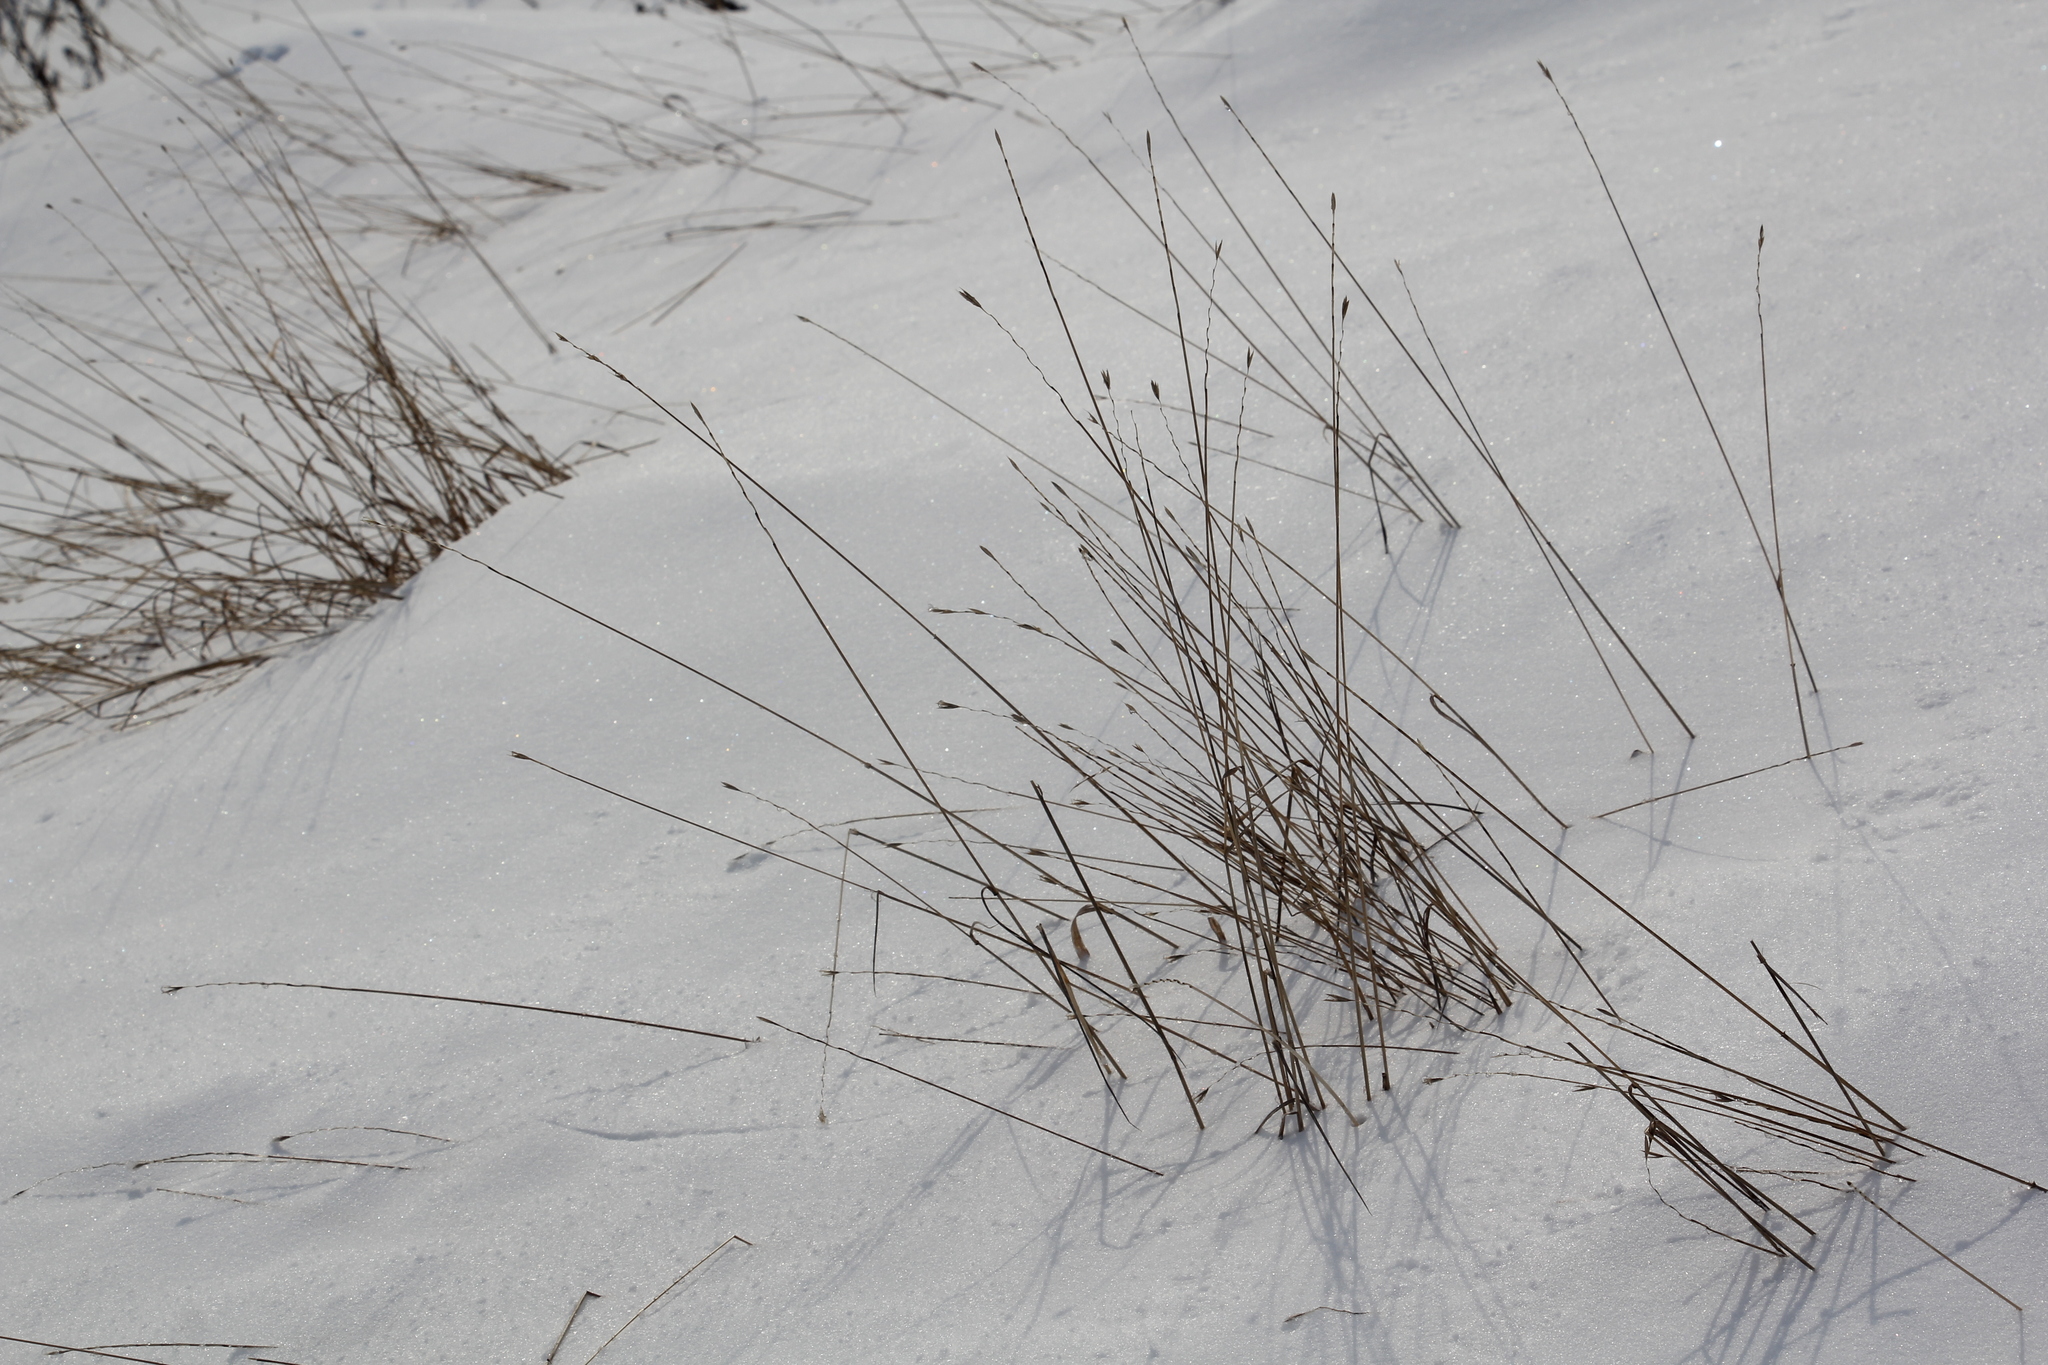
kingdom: Plantae
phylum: Tracheophyta
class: Liliopsida
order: Poales
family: Poaceae
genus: Elymus
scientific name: Elymus repens
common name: Quackgrass
